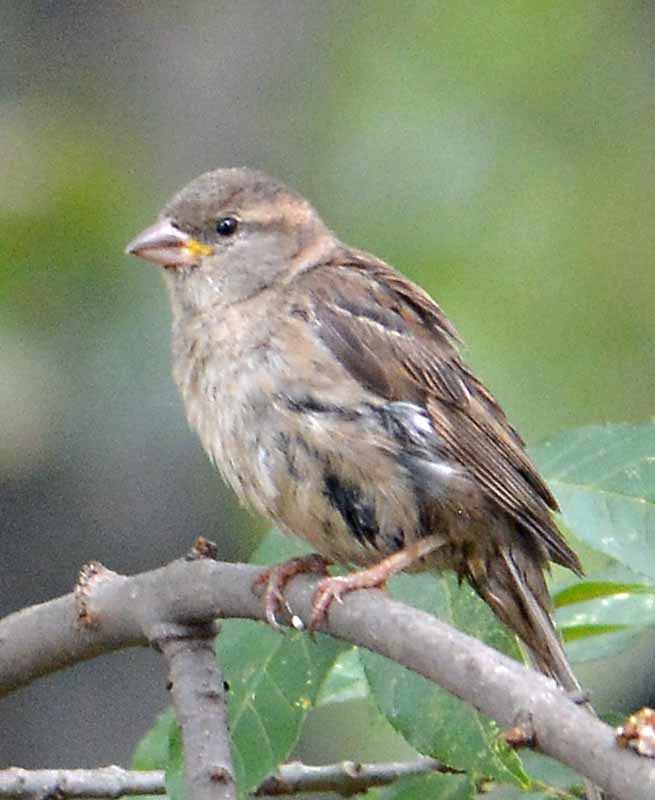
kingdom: Animalia
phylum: Chordata
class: Aves
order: Passeriformes
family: Passeridae
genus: Passer
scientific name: Passer domesticus
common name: House sparrow
